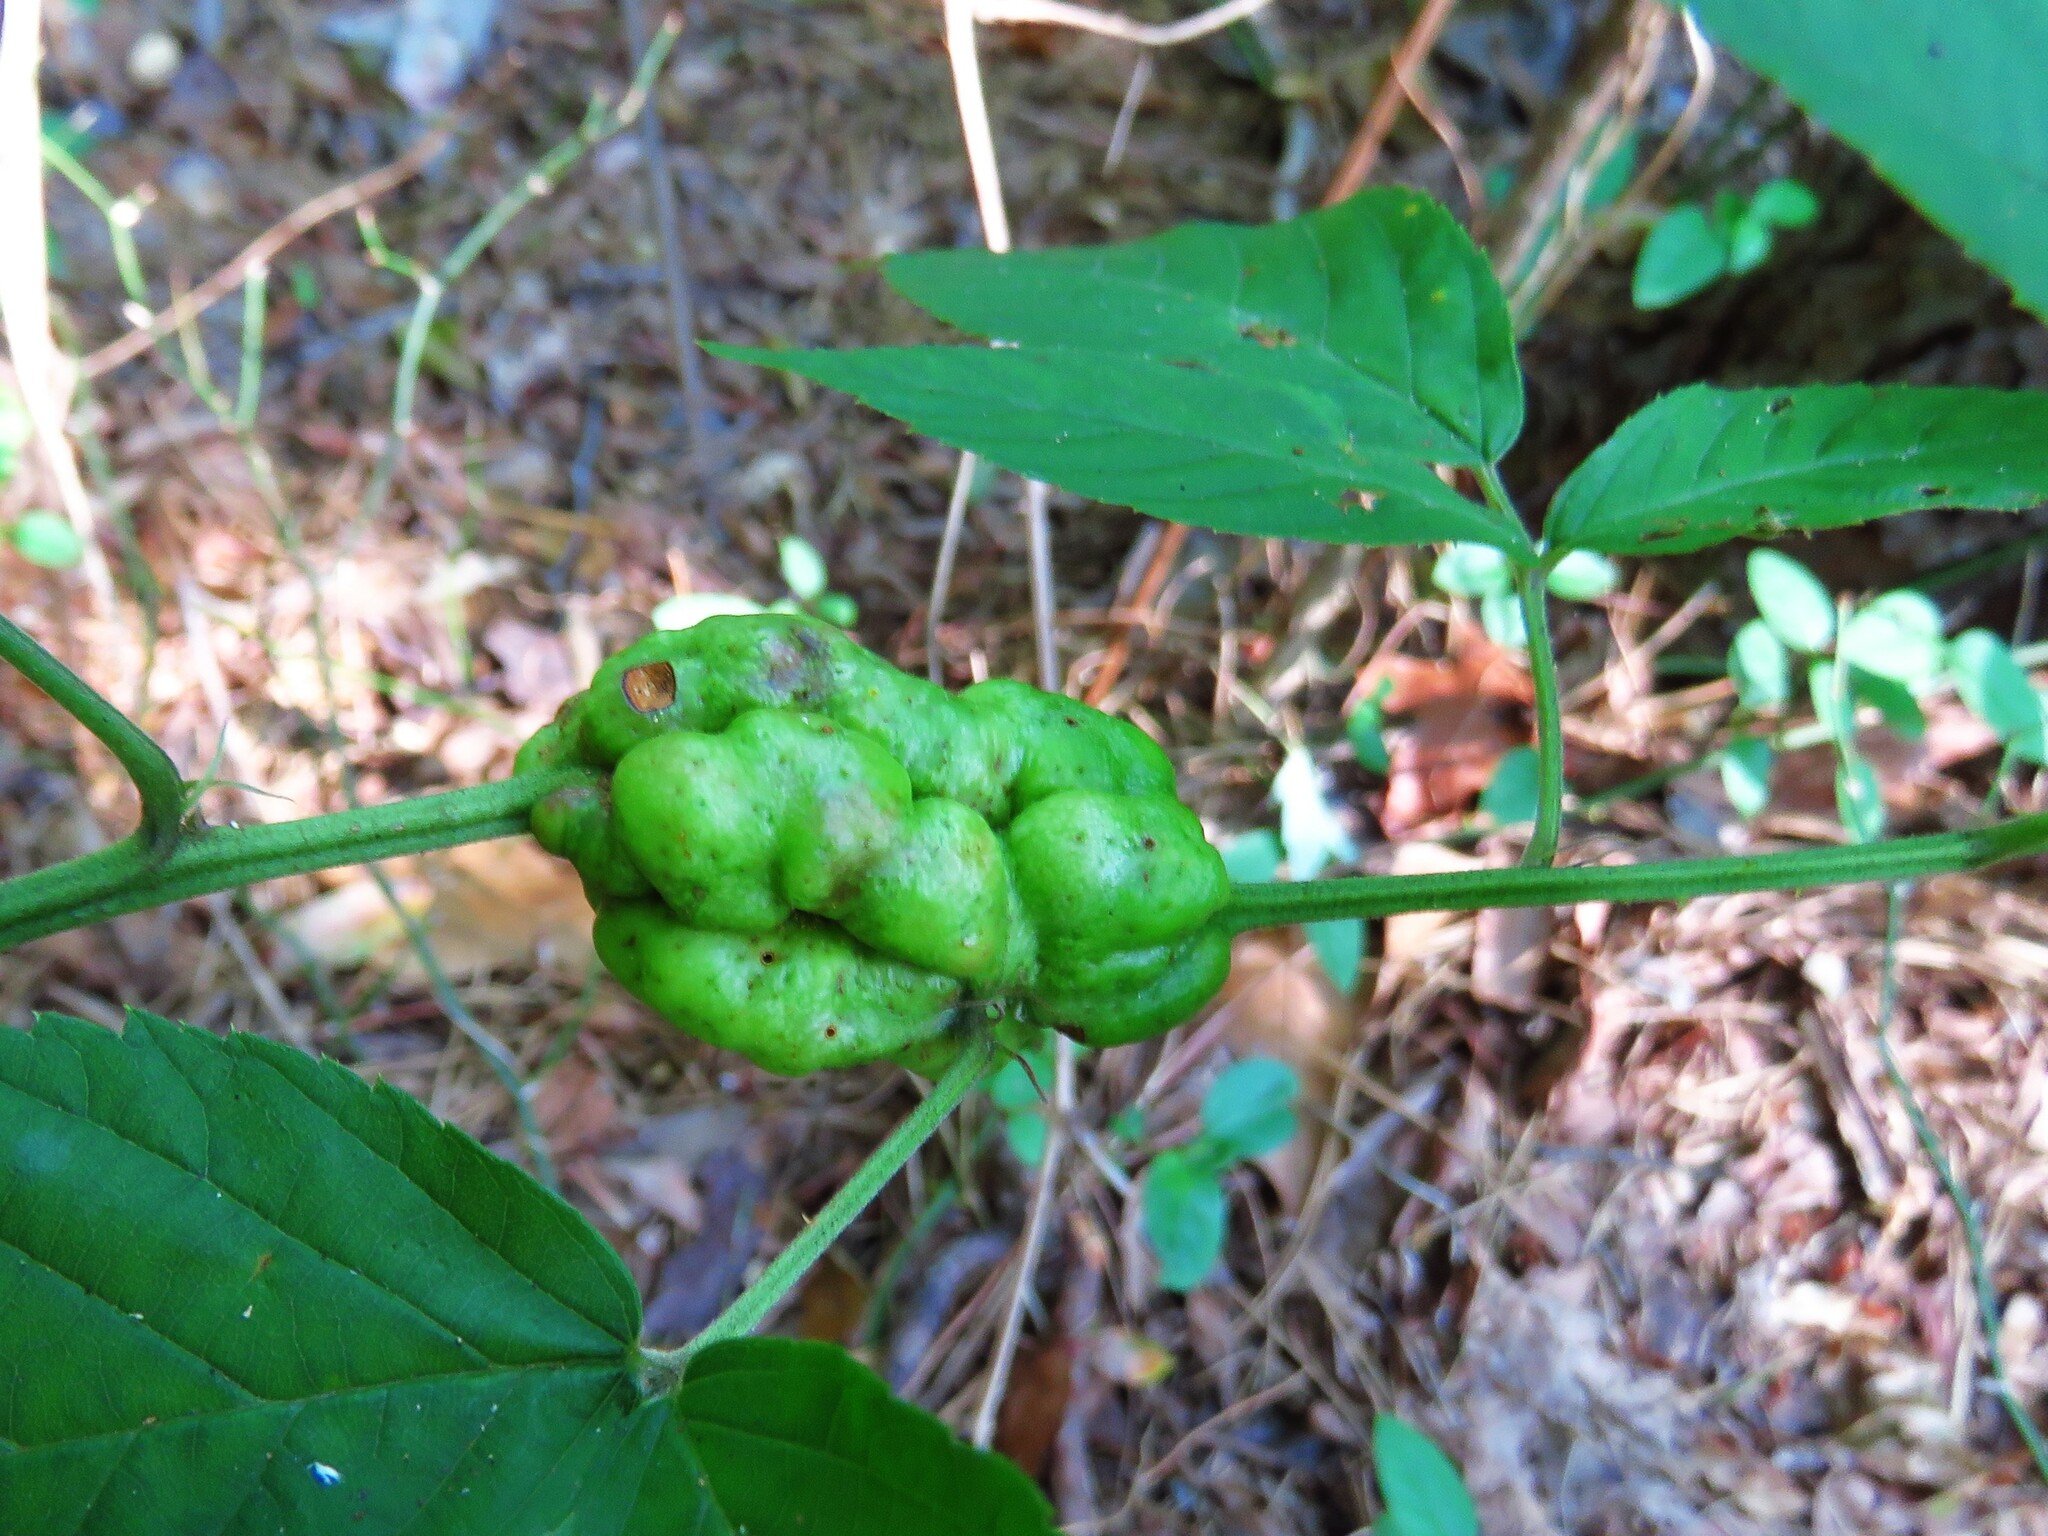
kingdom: Animalia
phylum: Arthropoda
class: Insecta
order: Hymenoptera
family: Cynipidae
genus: Diastrophus
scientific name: Diastrophus
